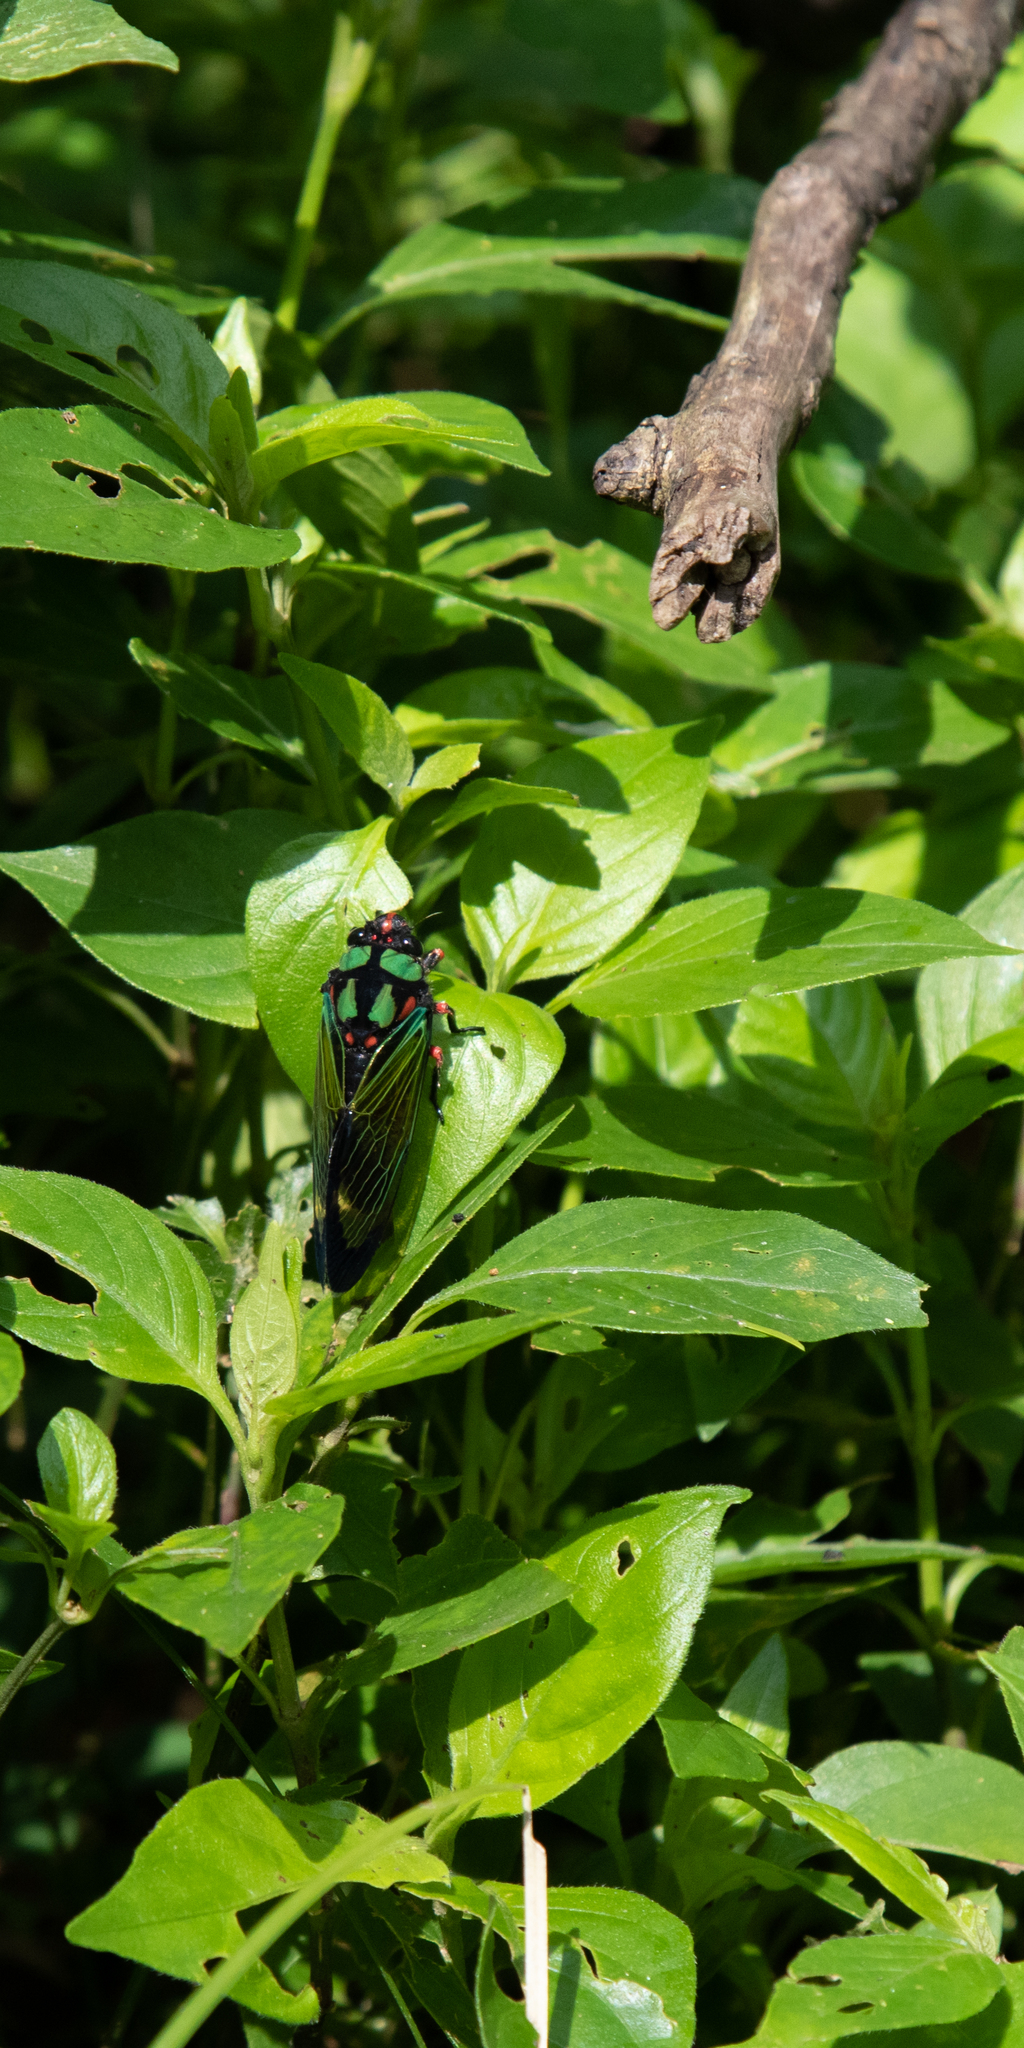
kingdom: Animalia
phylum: Arthropoda
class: Insecta
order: Hemiptera
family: Cicadidae
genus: Carineta
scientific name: Carineta diardi
